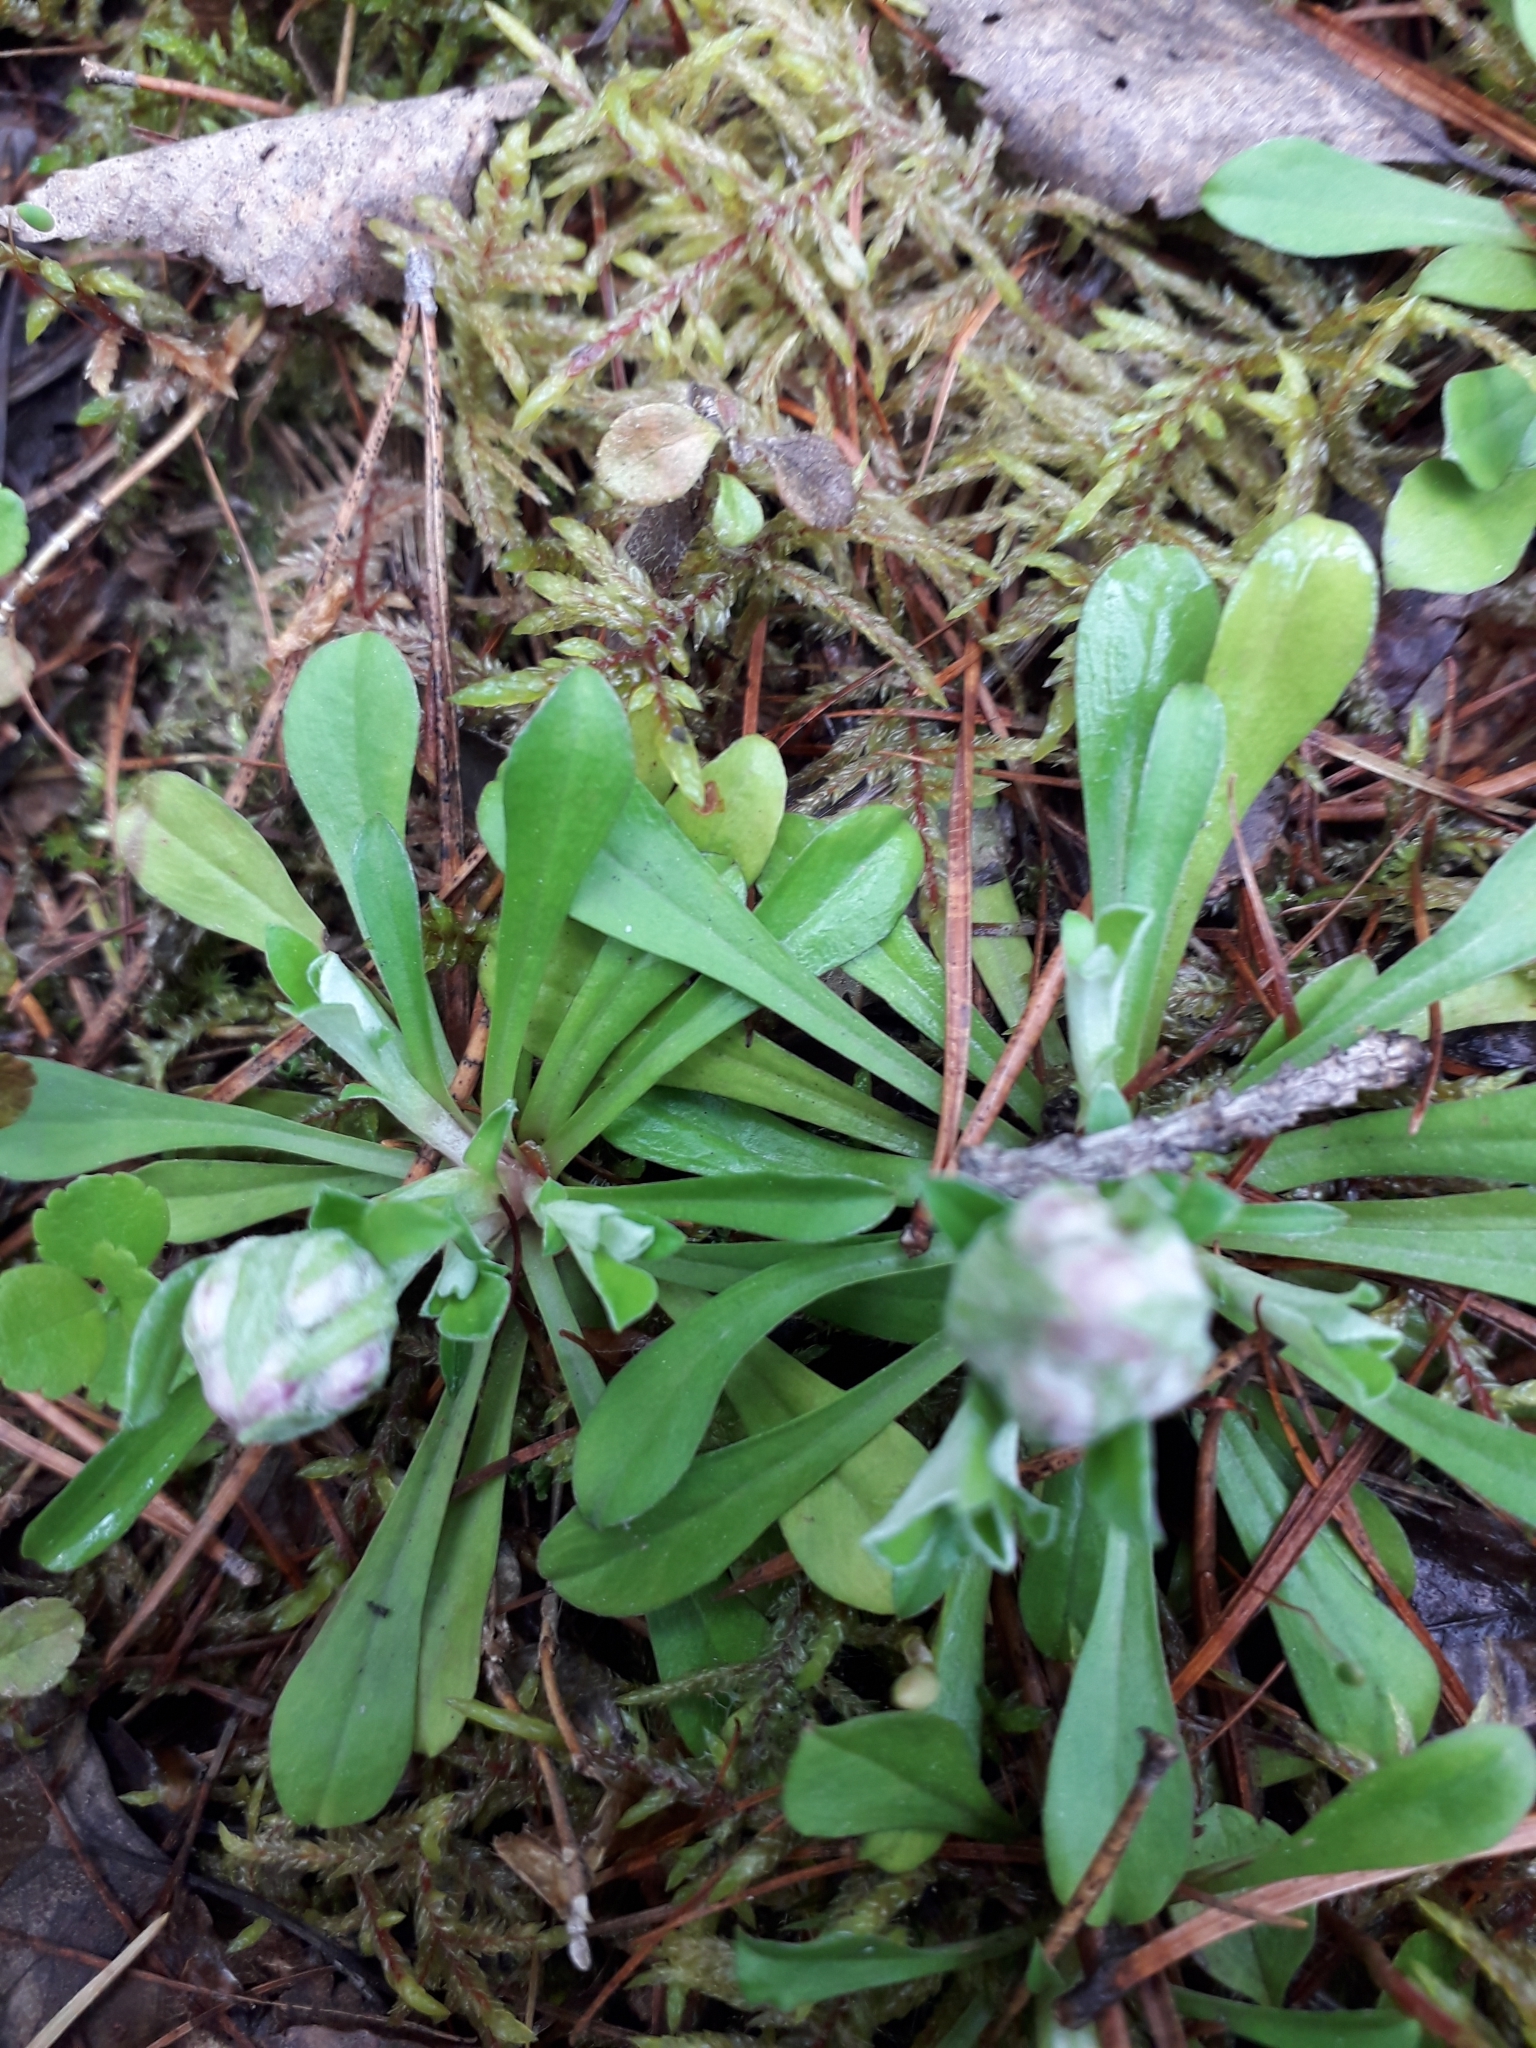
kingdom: Plantae
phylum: Tracheophyta
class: Magnoliopsida
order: Asterales
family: Asteraceae
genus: Antennaria
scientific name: Antennaria dioica
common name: Mountain everlasting
